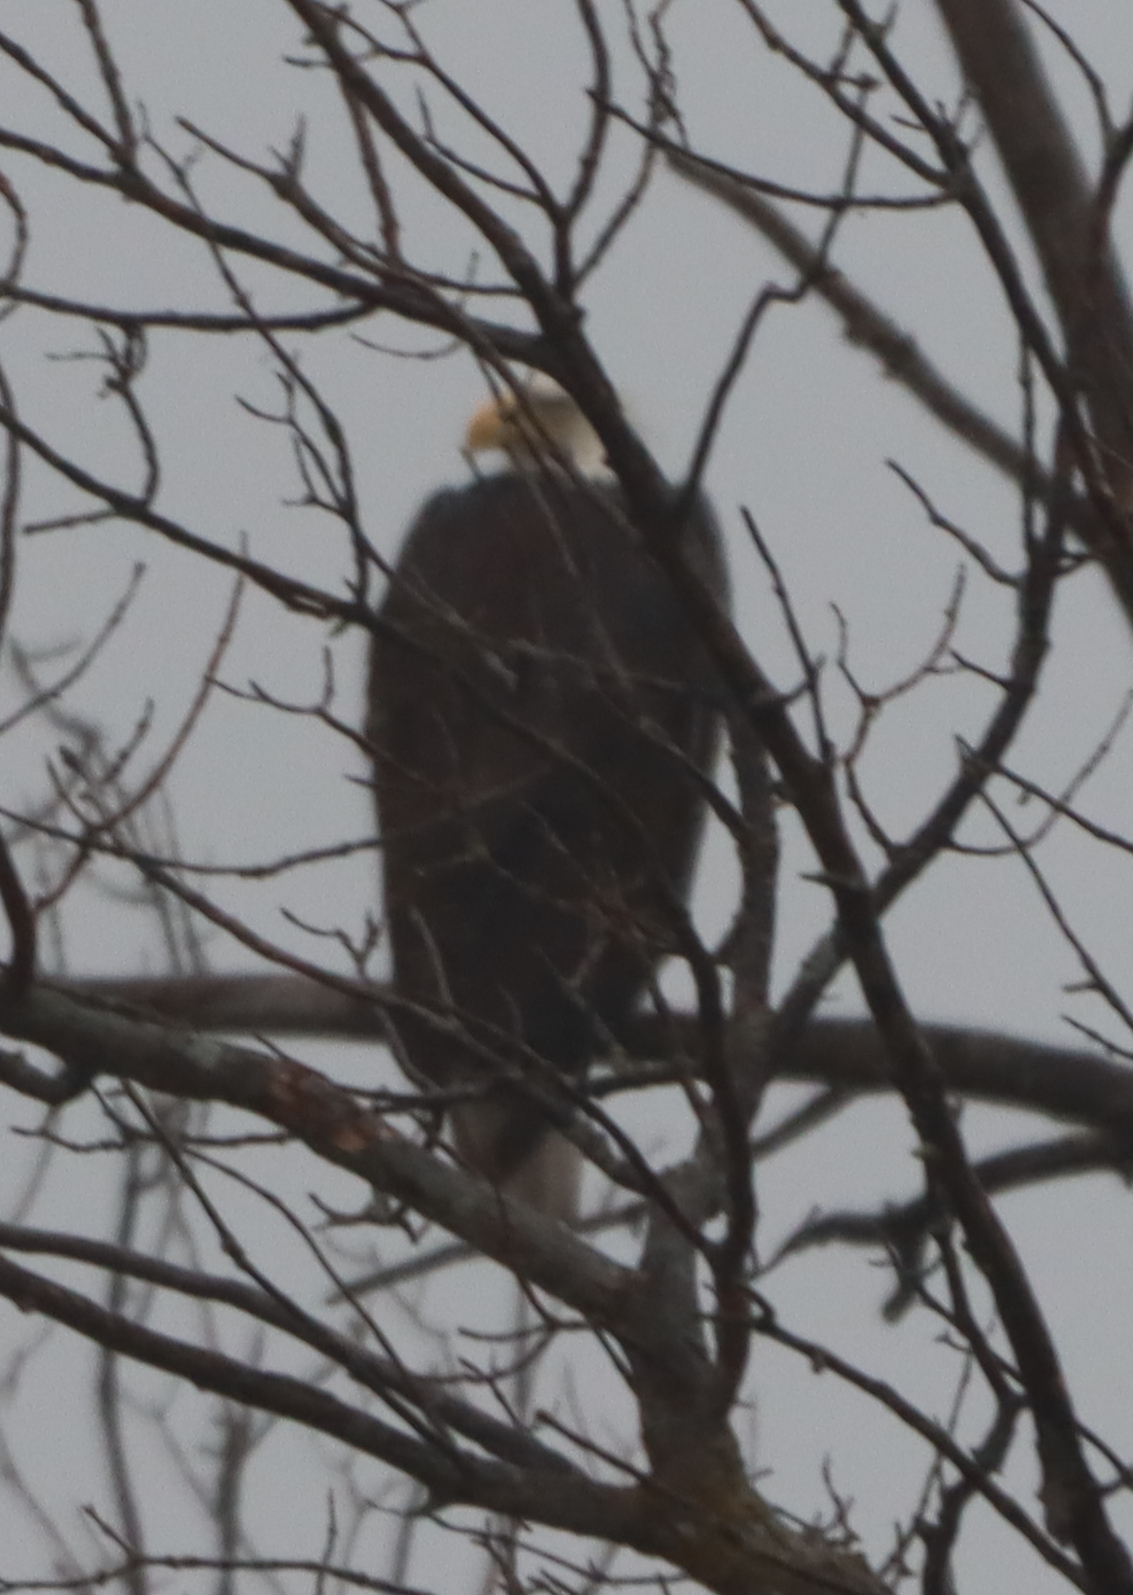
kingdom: Animalia
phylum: Chordata
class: Aves
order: Accipitriformes
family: Accipitridae
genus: Haliaeetus
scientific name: Haliaeetus leucocephalus
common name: Bald eagle
